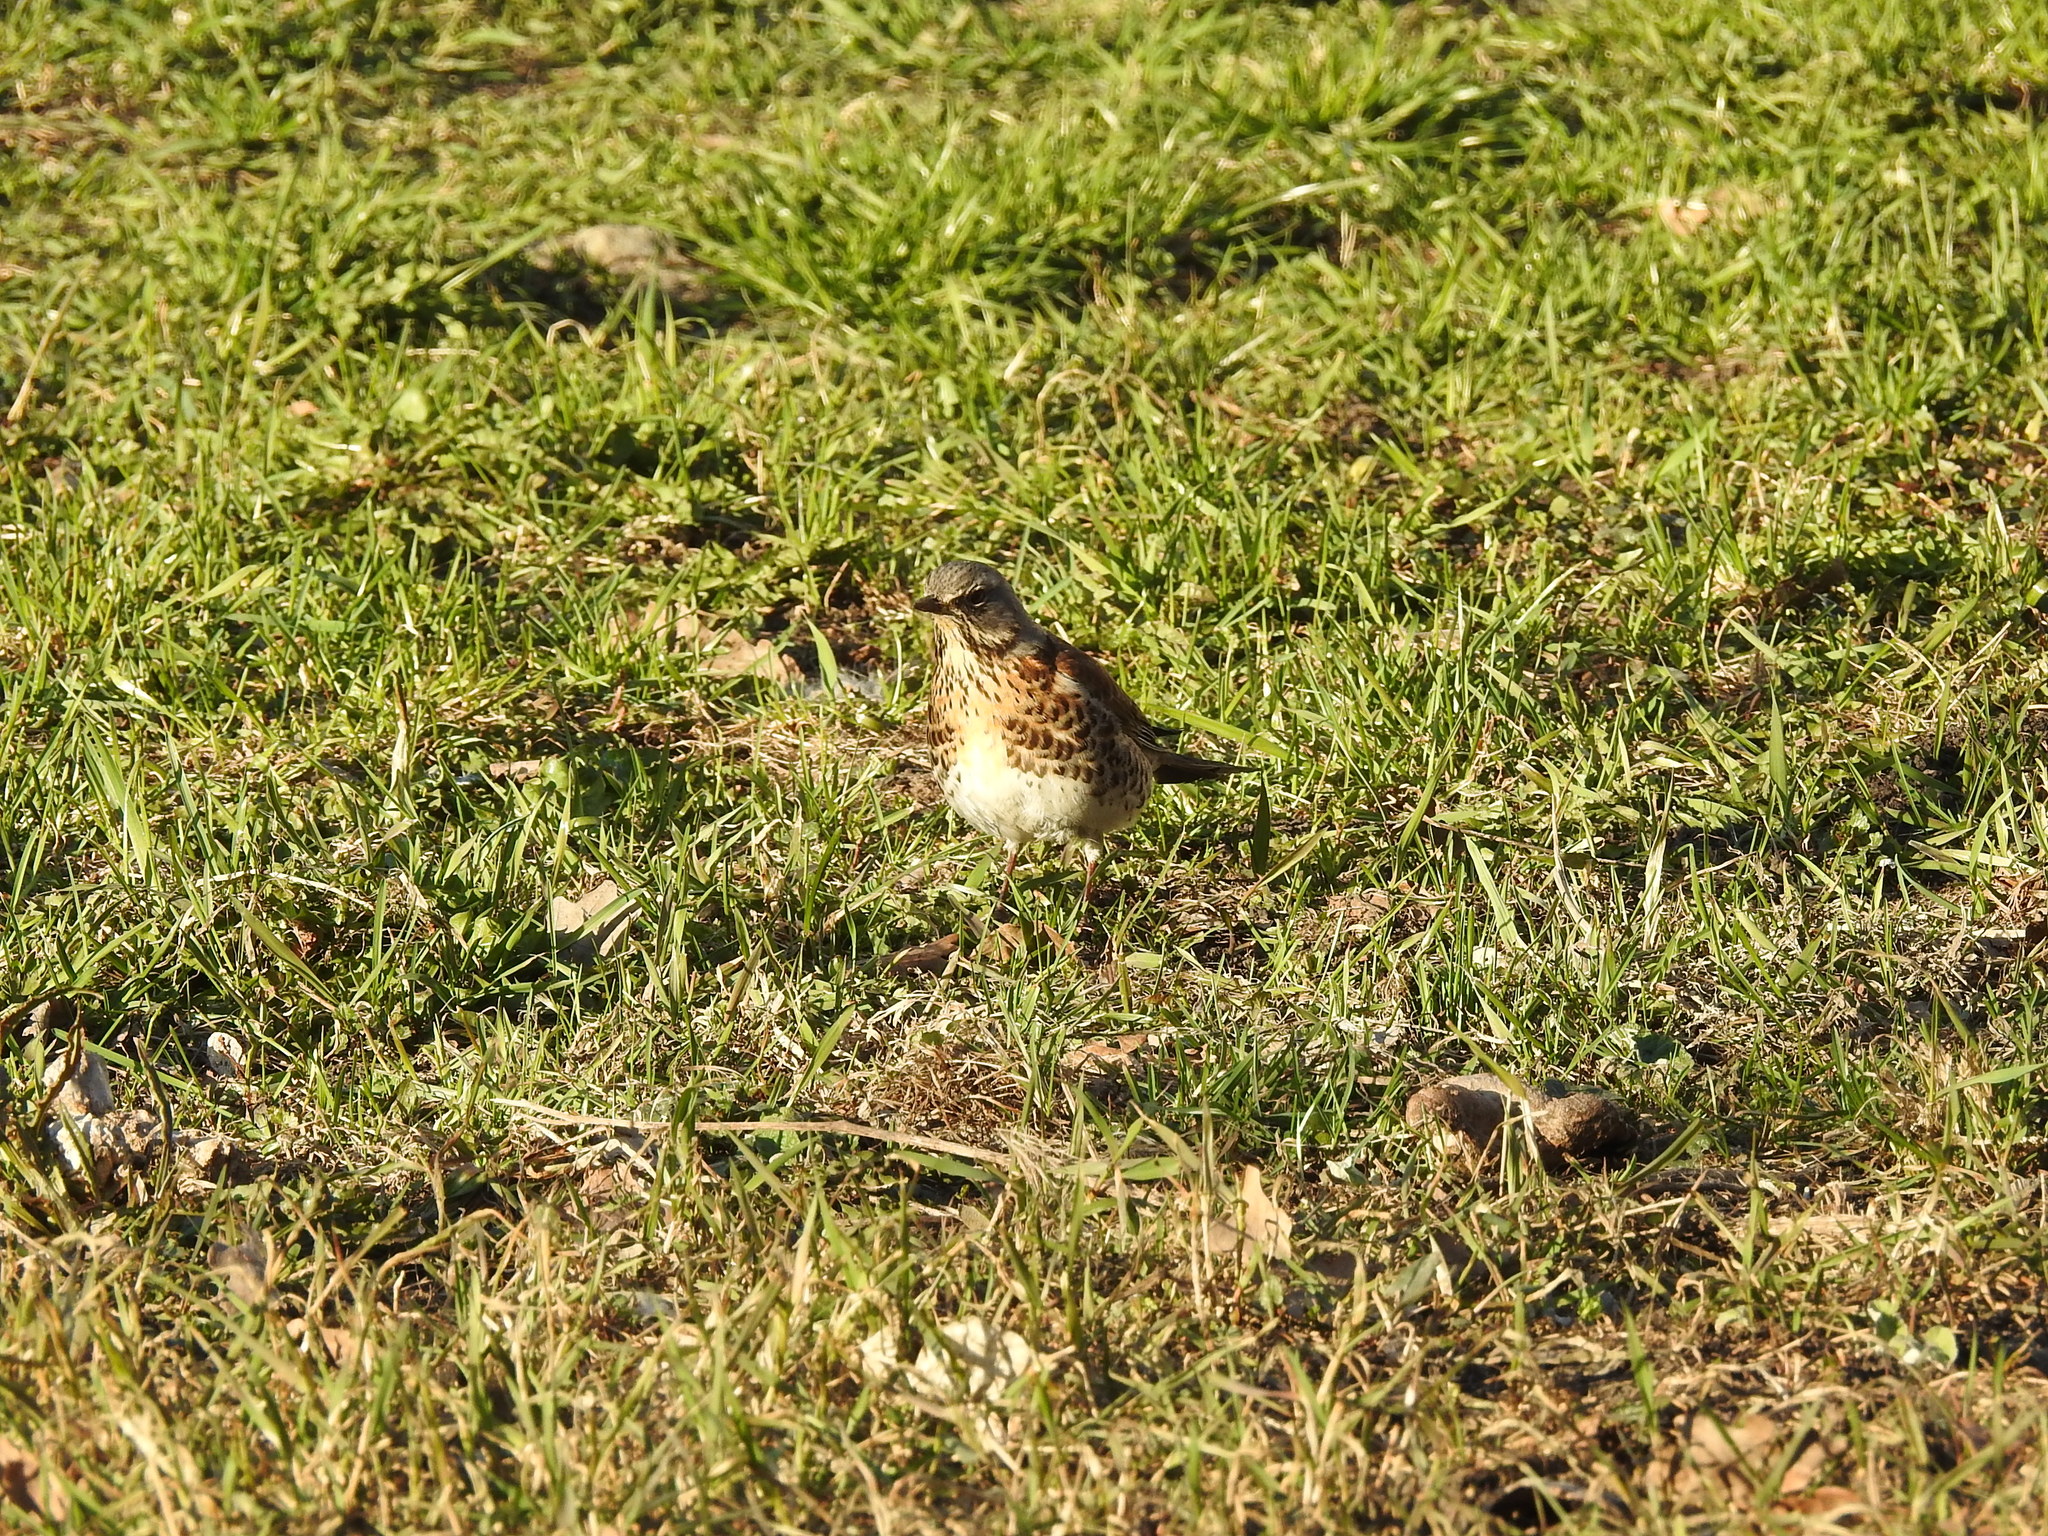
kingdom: Animalia
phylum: Chordata
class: Aves
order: Passeriformes
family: Turdidae
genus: Turdus
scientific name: Turdus pilaris
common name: Fieldfare
